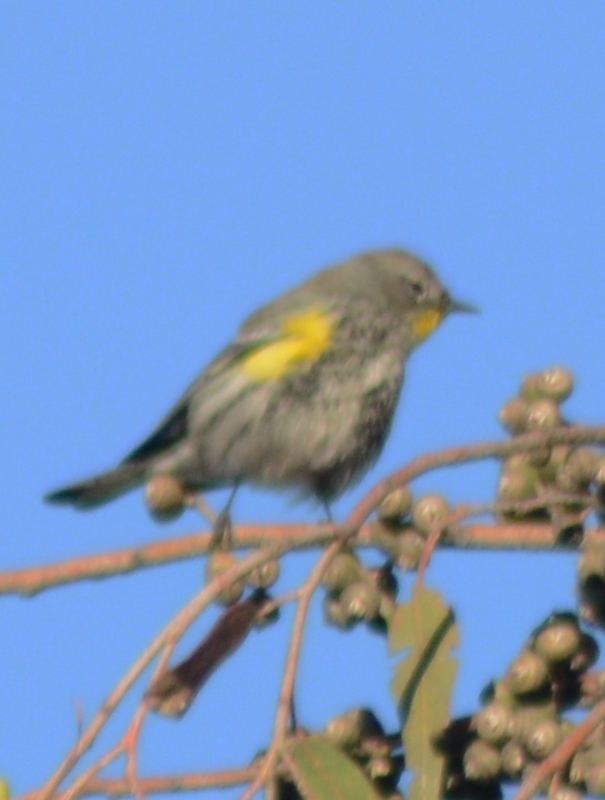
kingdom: Animalia
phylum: Chordata
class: Aves
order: Passeriformes
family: Parulidae
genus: Setophaga
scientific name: Setophaga coronata
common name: Myrtle warbler
